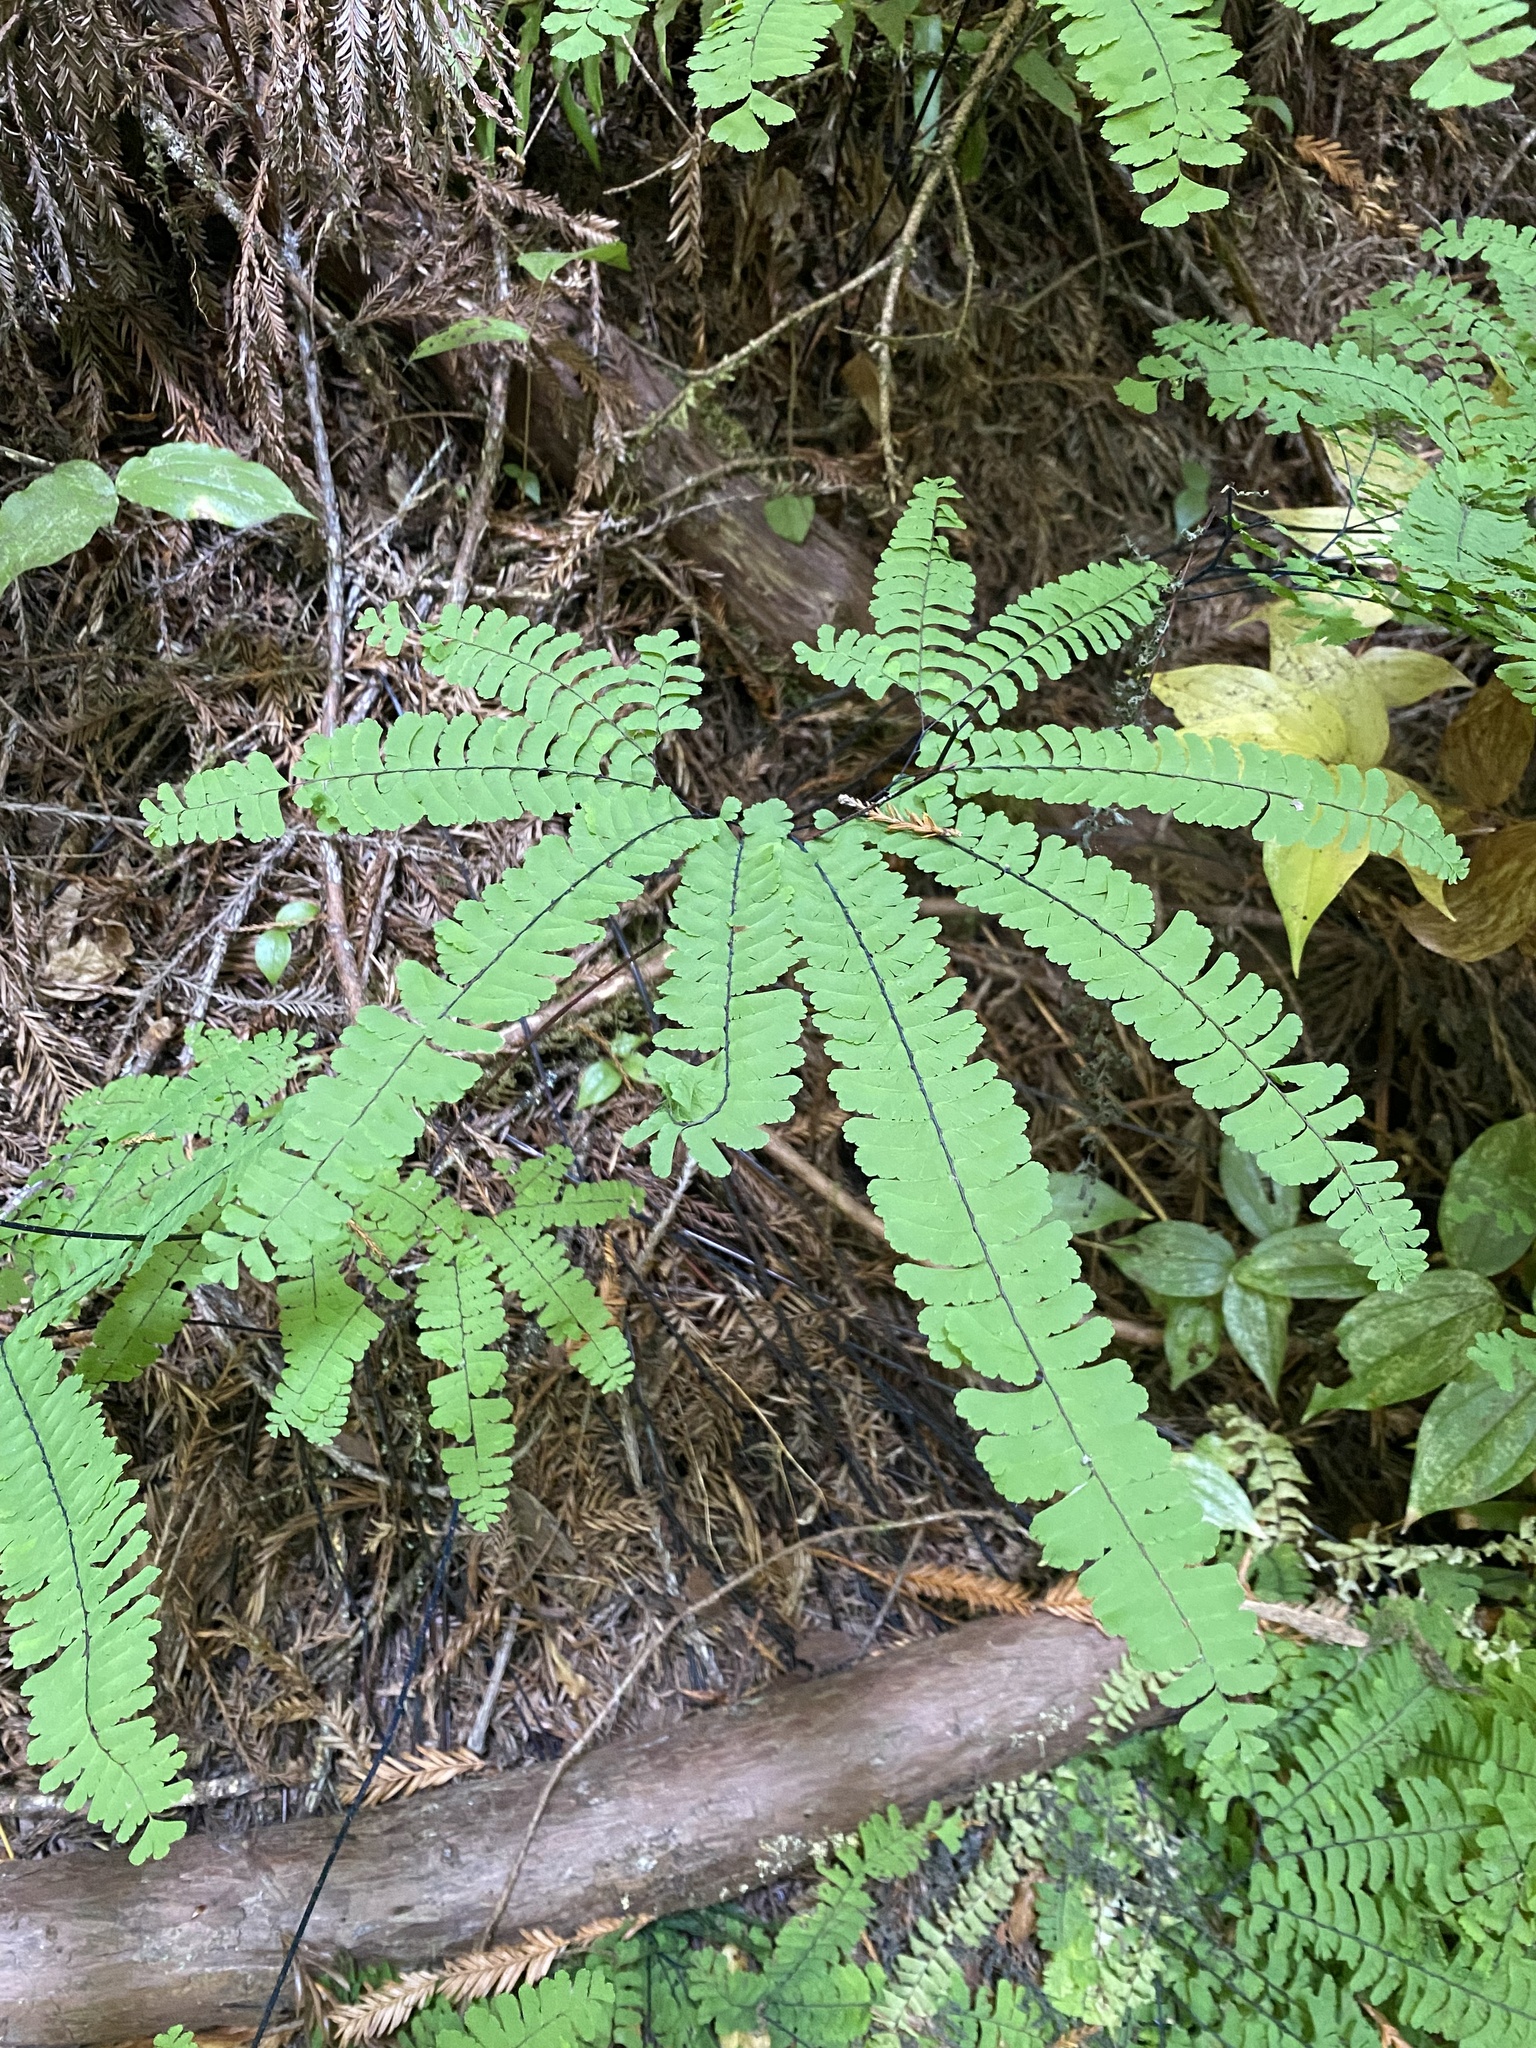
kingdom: Plantae
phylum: Tracheophyta
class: Polypodiopsida
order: Polypodiales
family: Pteridaceae
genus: Adiantum
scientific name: Adiantum aleuticum
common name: Aleutian maidenhair fern
